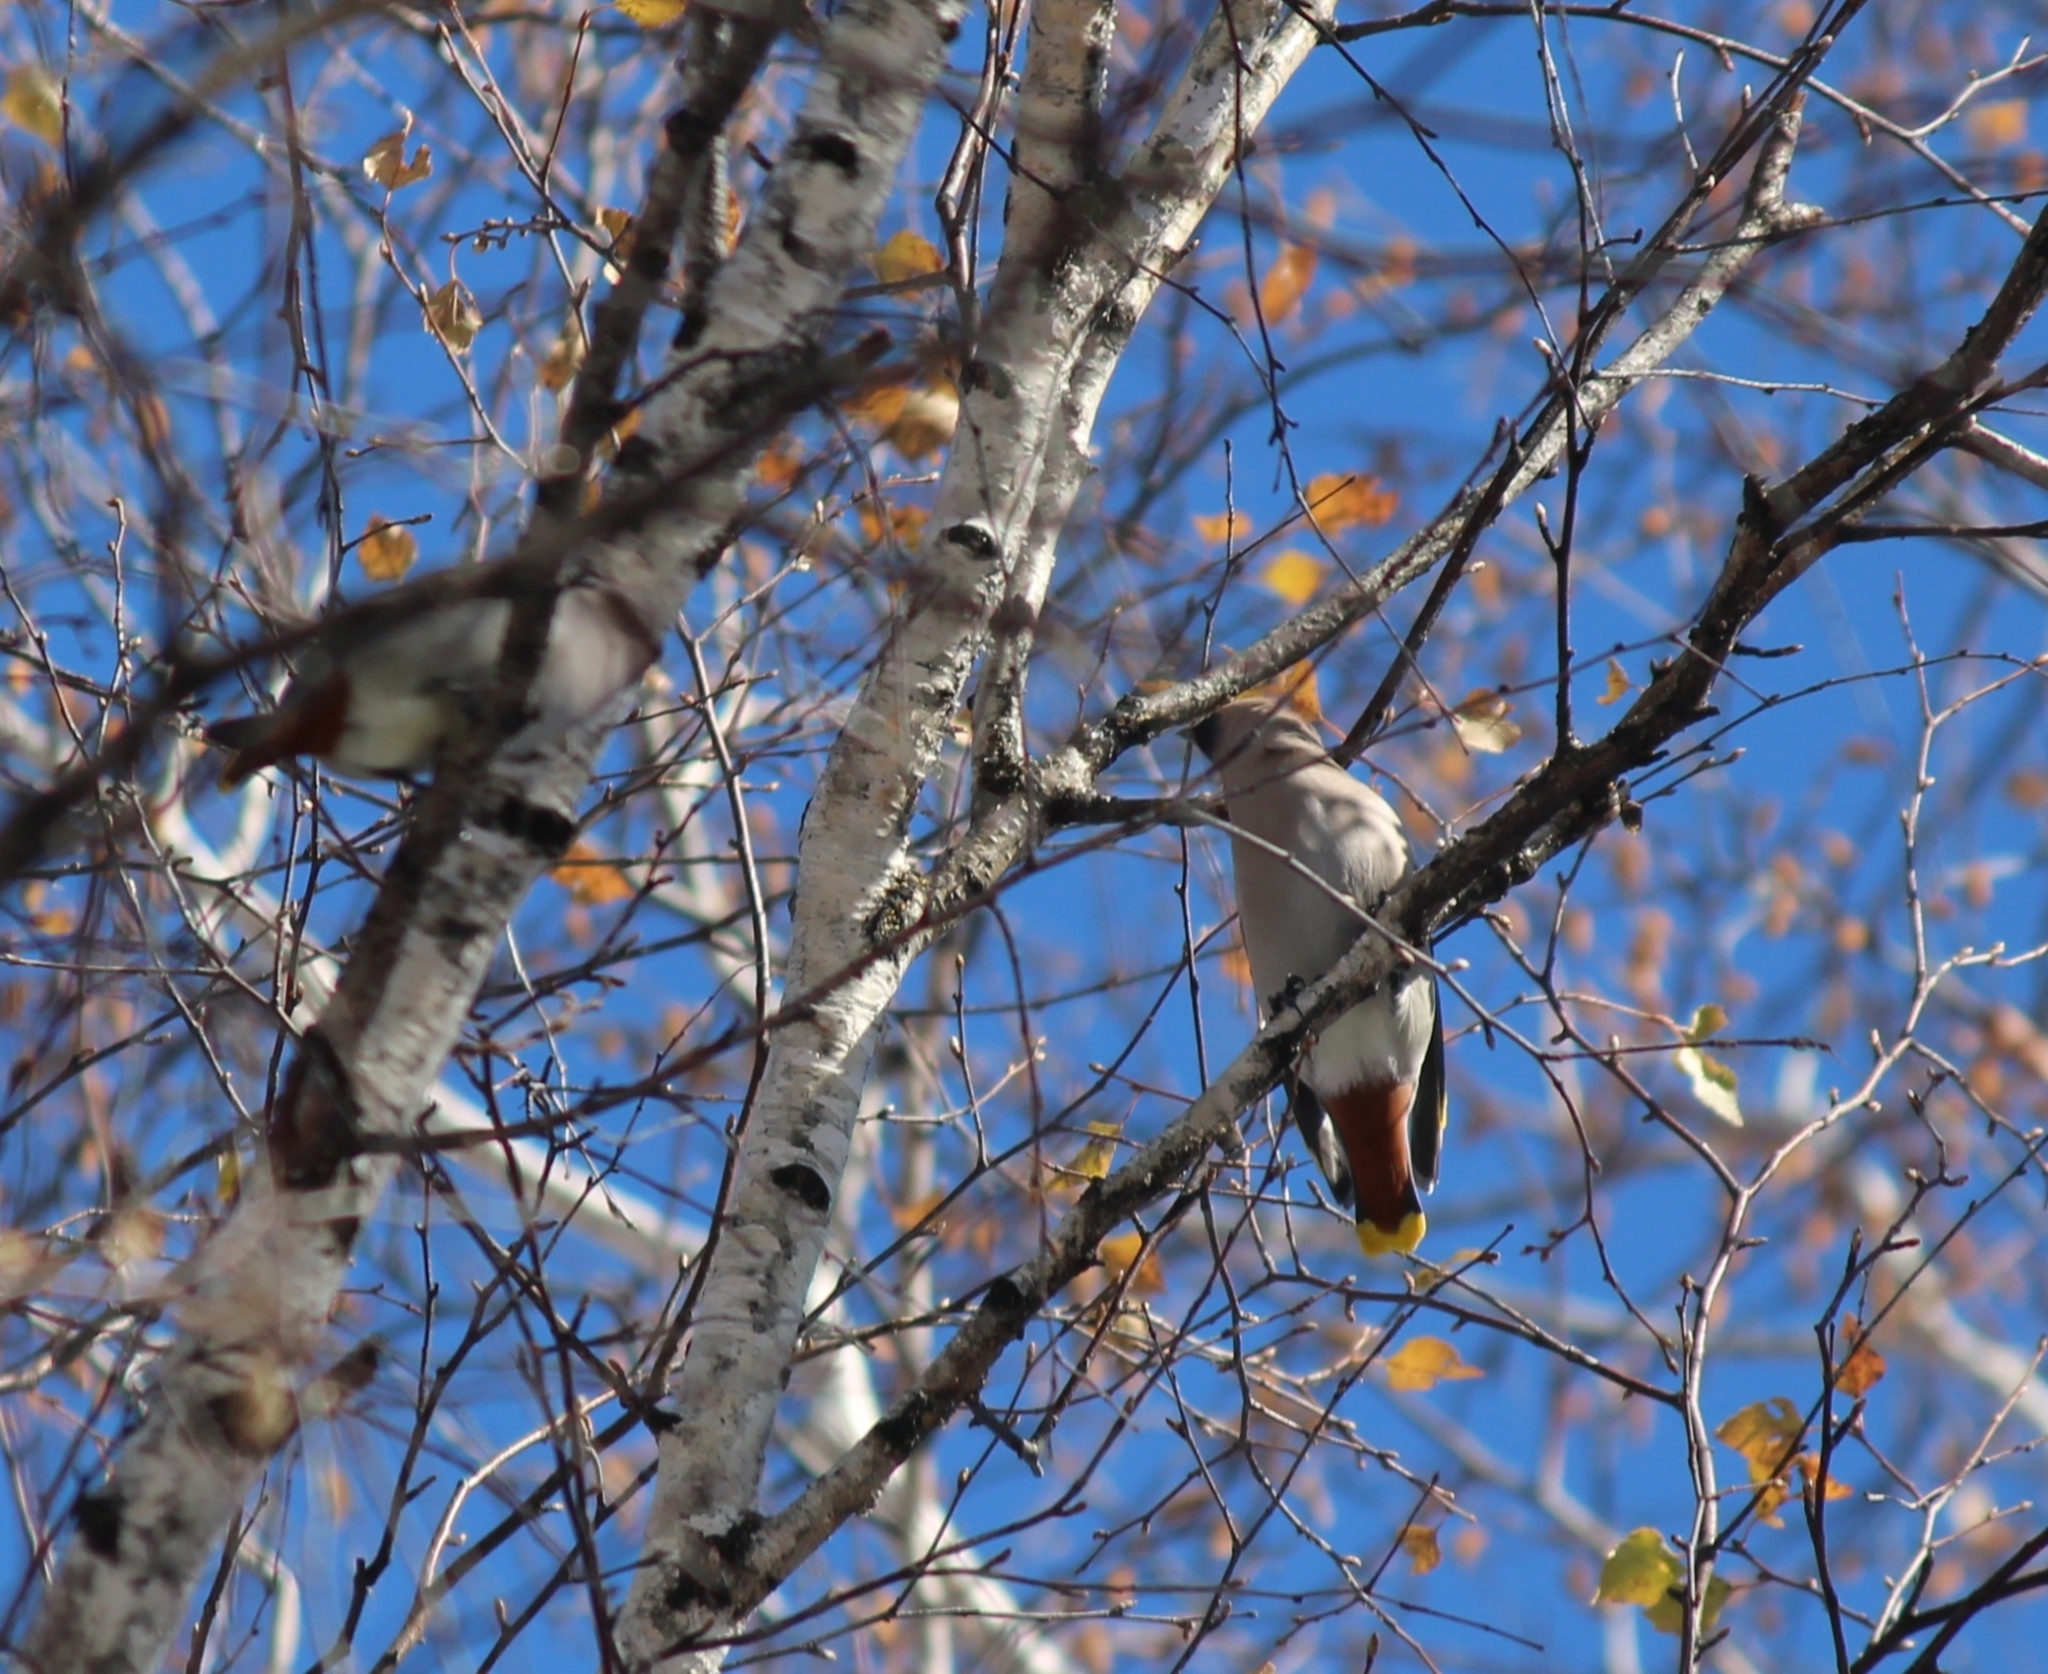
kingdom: Animalia
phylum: Chordata
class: Aves
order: Passeriformes
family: Bombycillidae
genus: Bombycilla
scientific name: Bombycilla garrulus
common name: Bohemian waxwing
